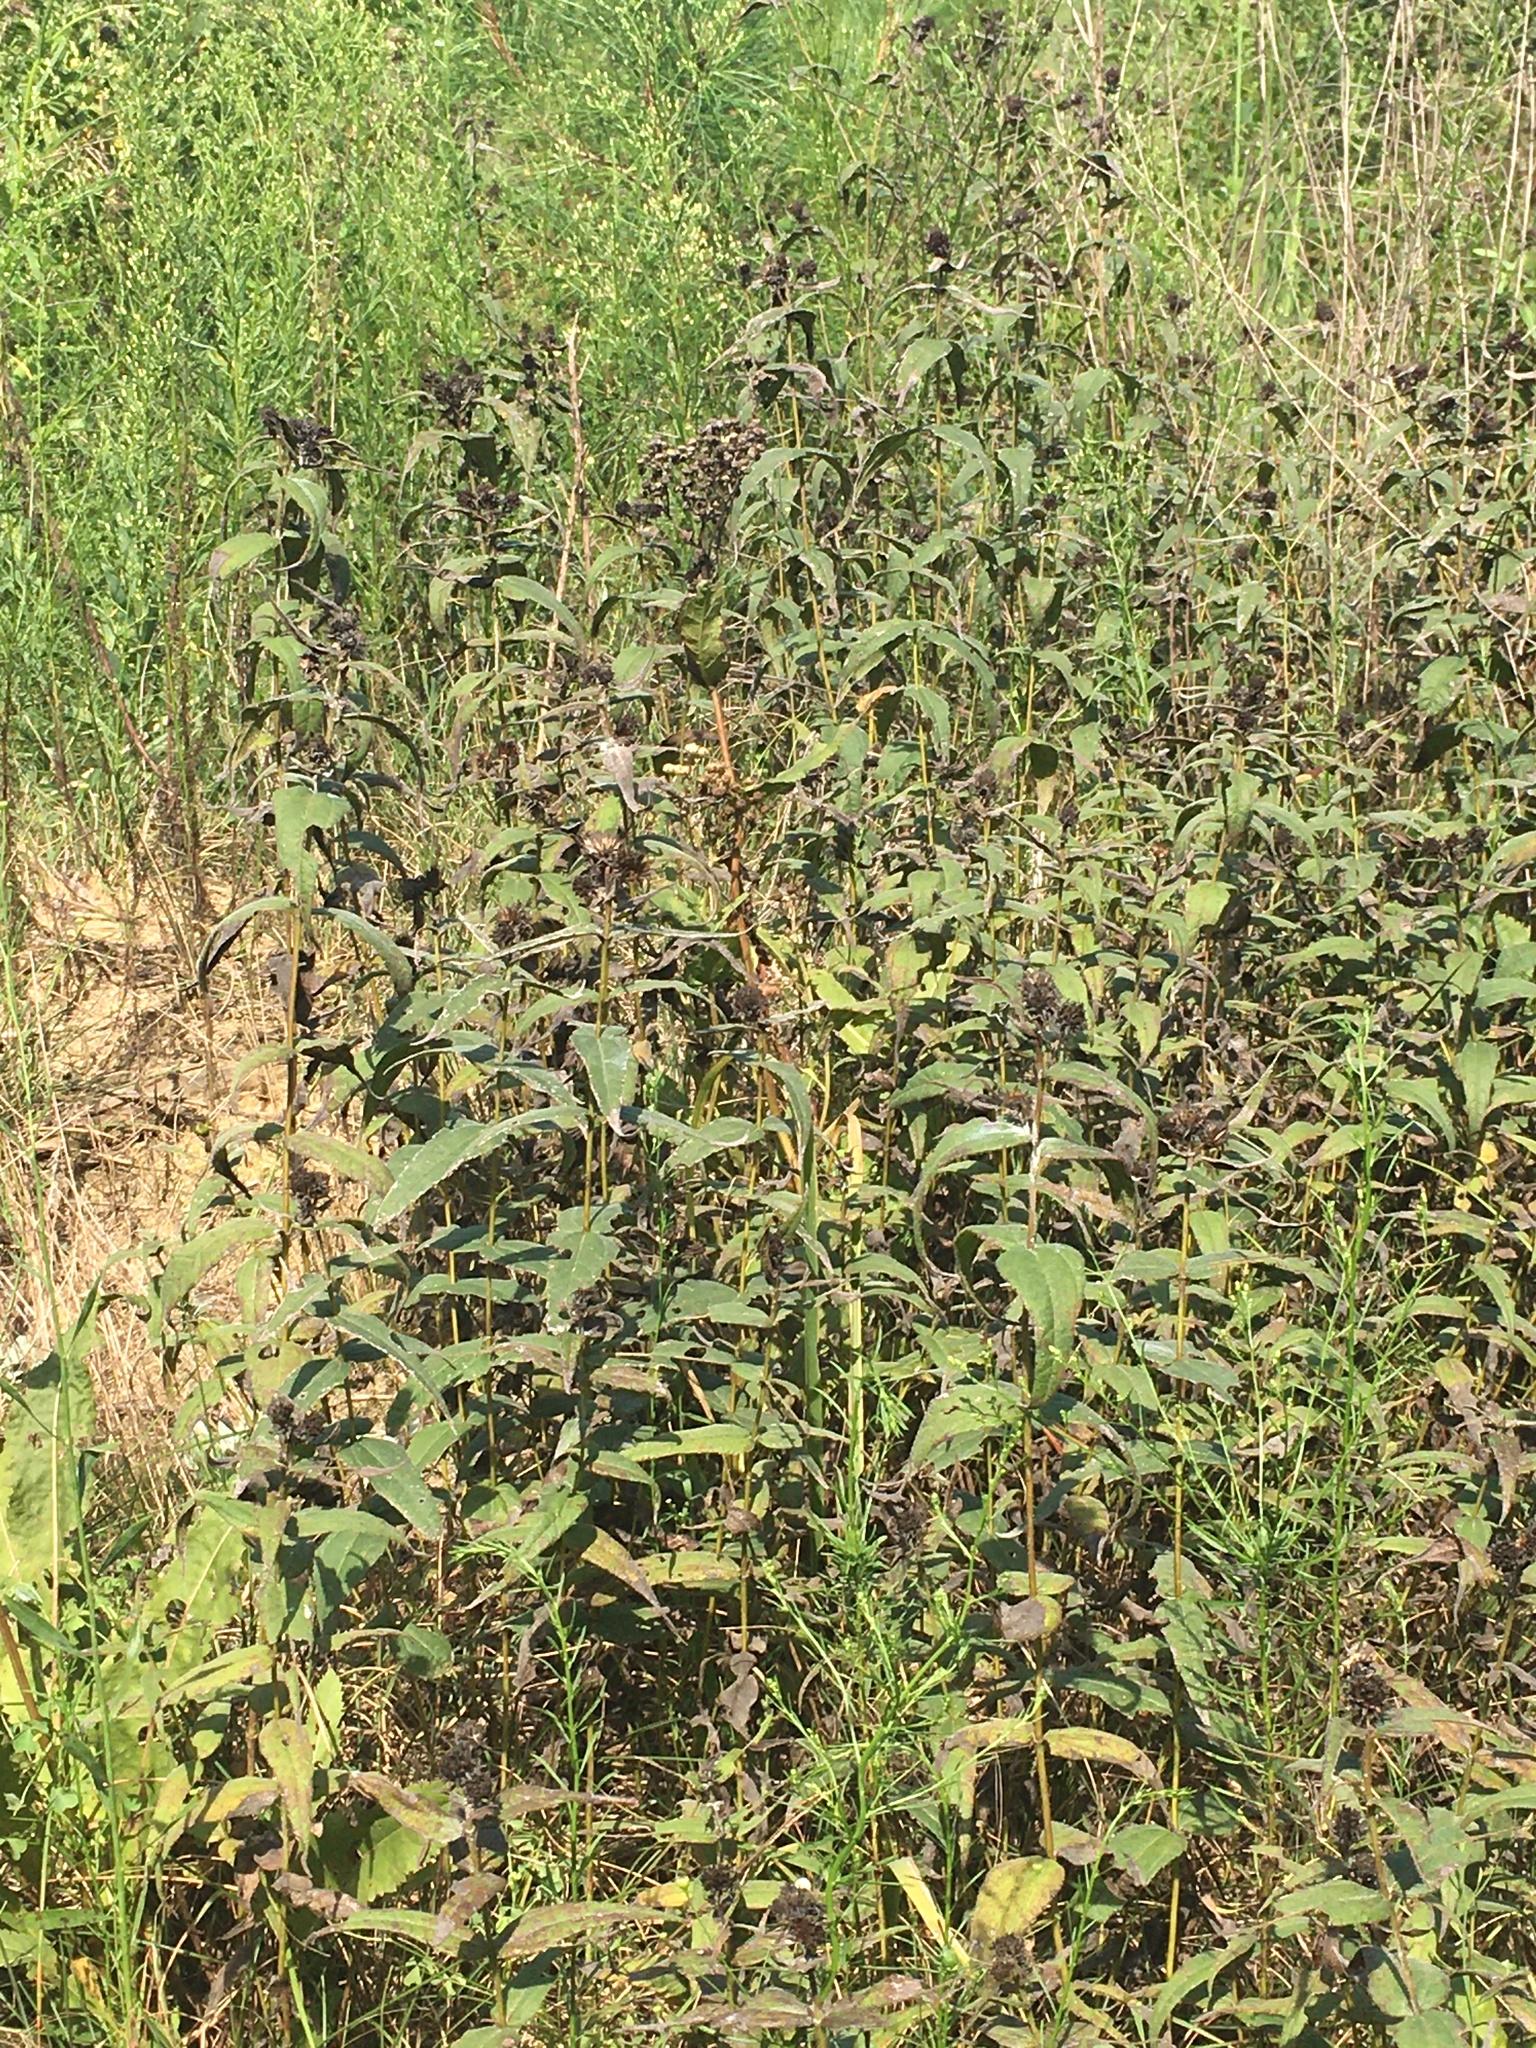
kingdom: Plantae
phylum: Tracheophyta
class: Magnoliopsida
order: Asterales
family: Asteraceae
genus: Helianthus
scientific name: Helianthus divaricatus
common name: Divergent sunflower
